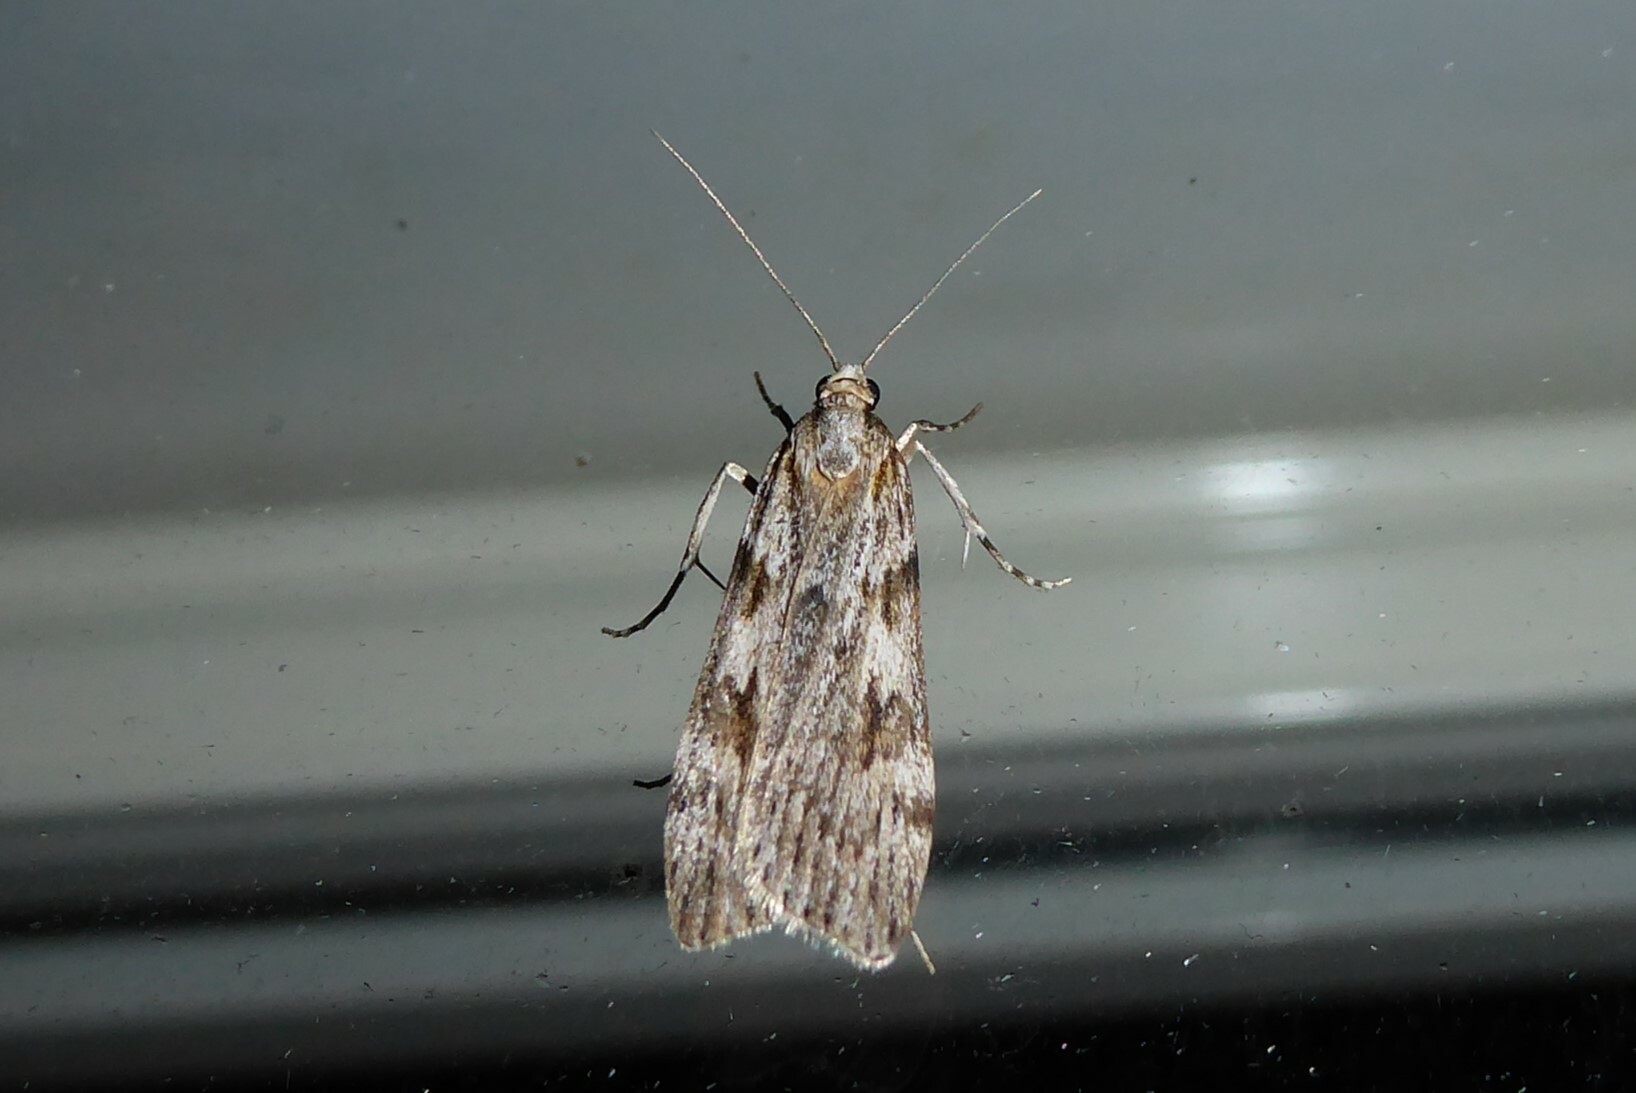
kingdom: Animalia
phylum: Arthropoda
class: Insecta
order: Lepidoptera
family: Crambidae
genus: Scoparia
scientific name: Scoparia halopis
